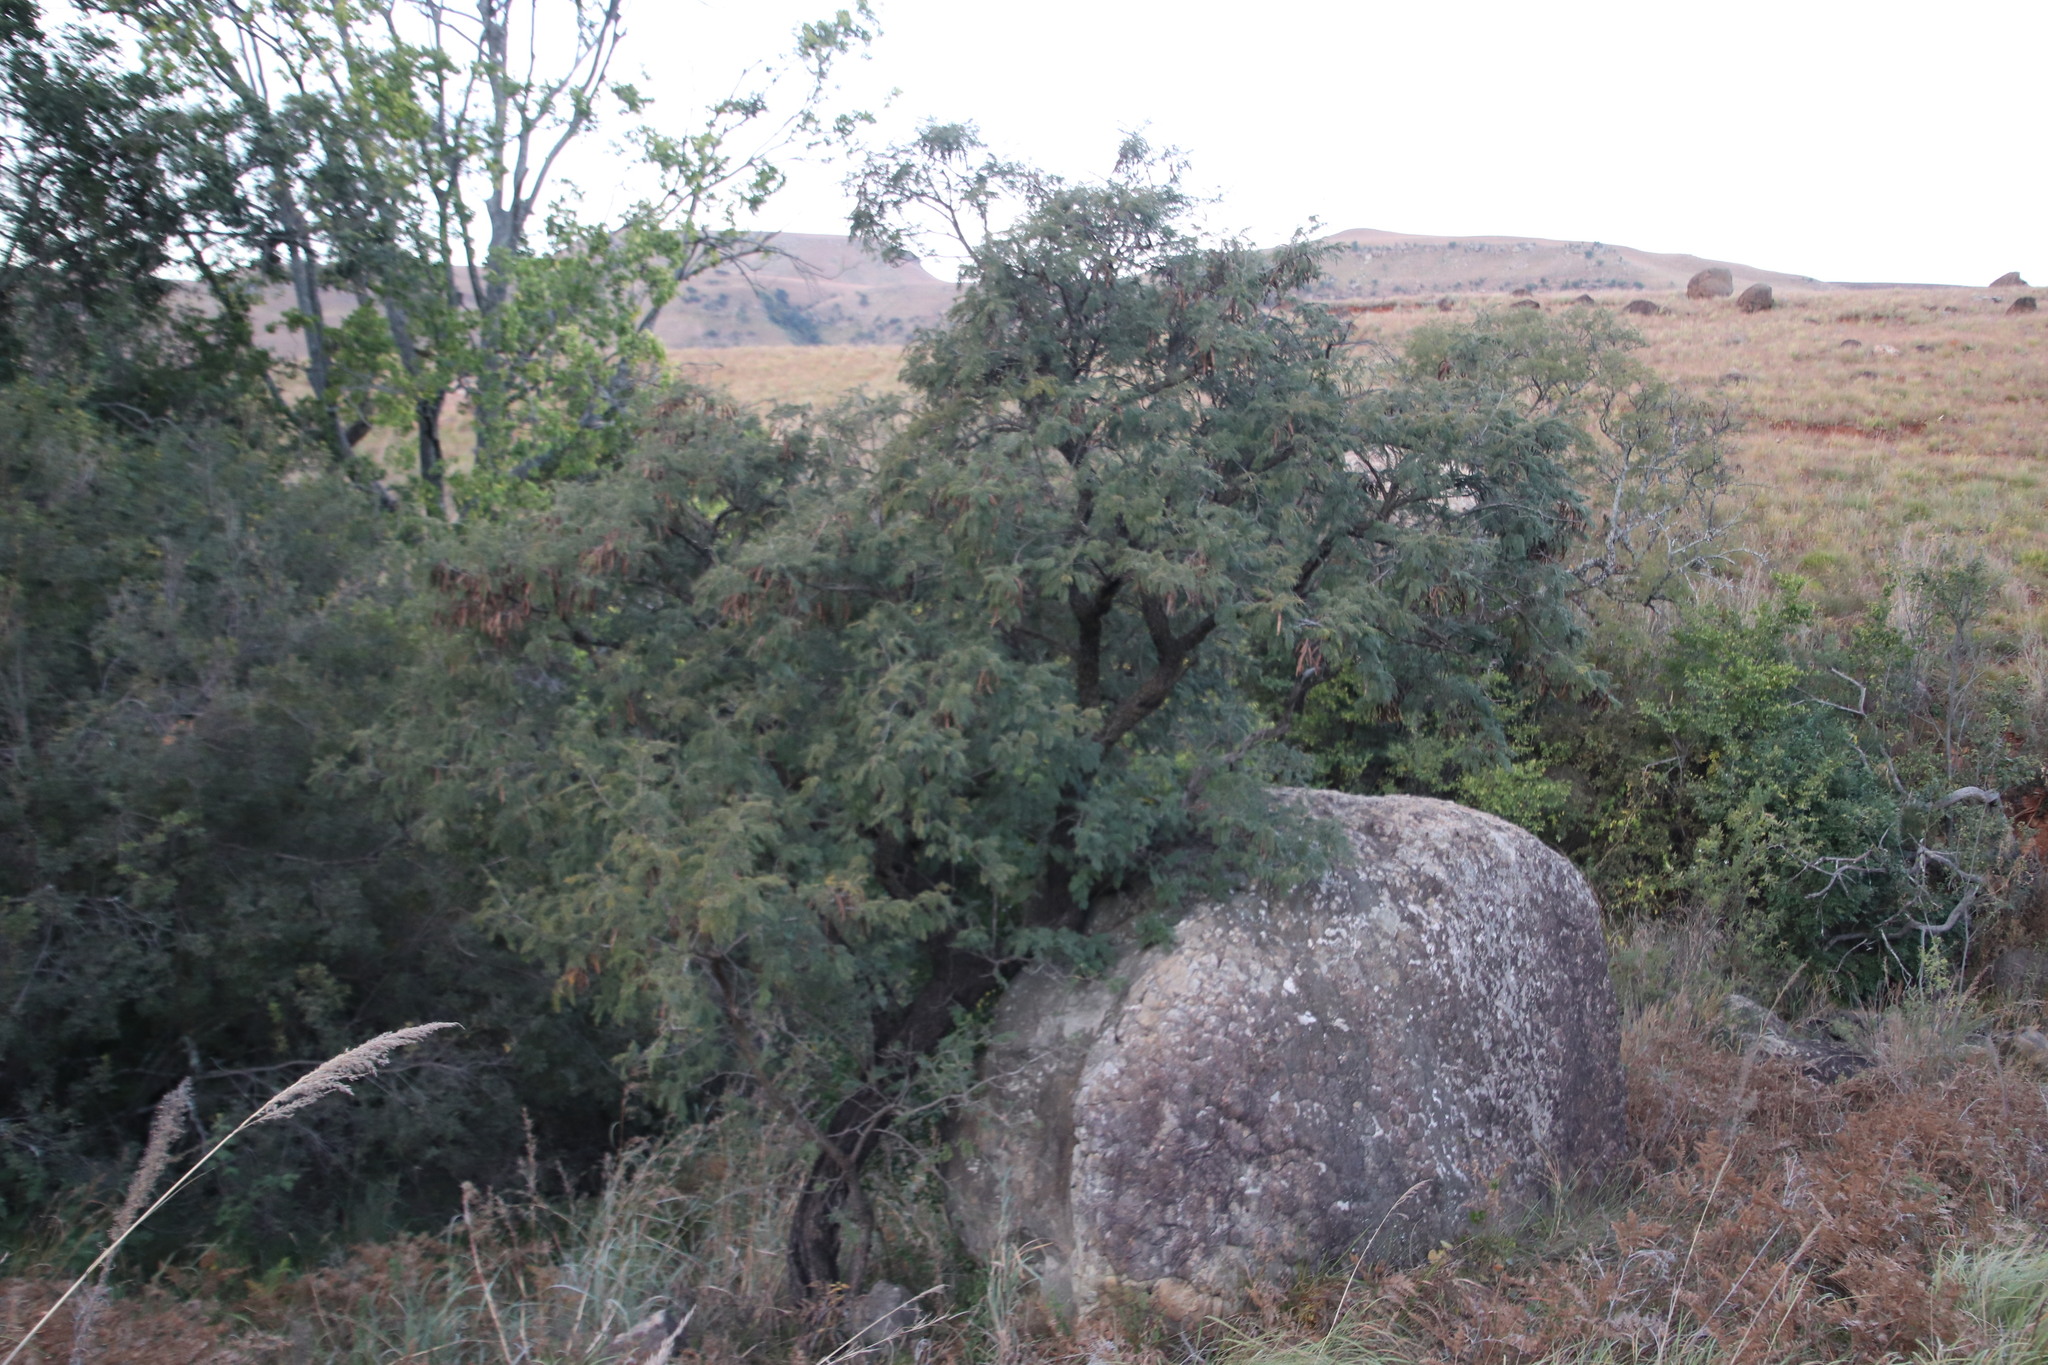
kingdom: Plantae
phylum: Tracheophyta
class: Magnoliopsida
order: Fabales
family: Fabaceae
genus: Senegalia
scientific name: Senegalia caffra
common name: Cat thorn
